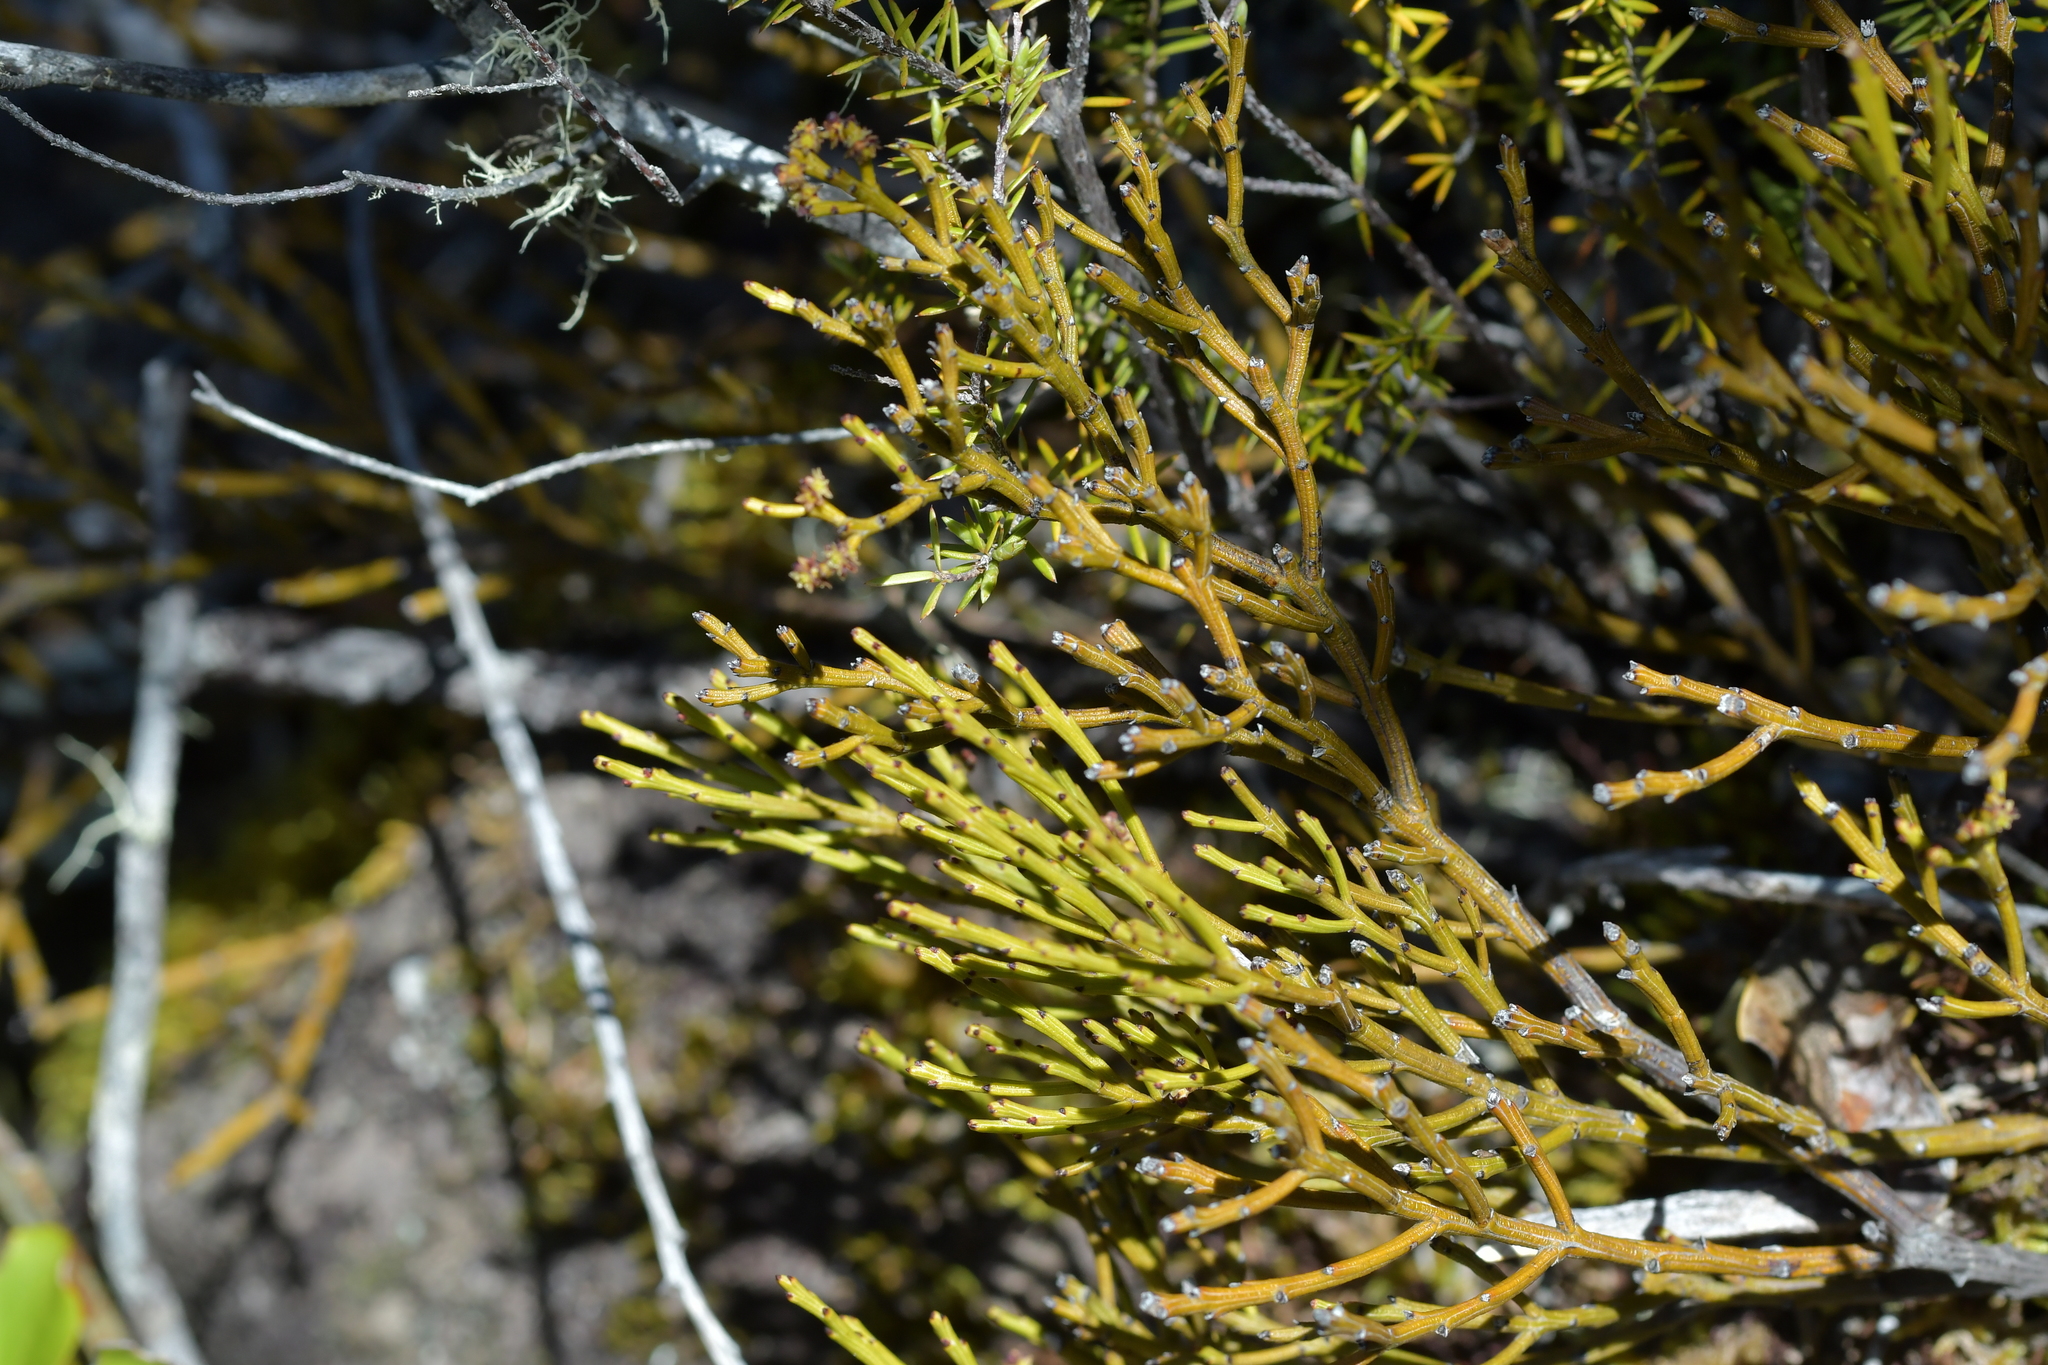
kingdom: Plantae
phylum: Tracheophyta
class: Magnoliopsida
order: Santalales
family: Santalaceae
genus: Exocarpos
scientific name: Exocarpos bidwillii
